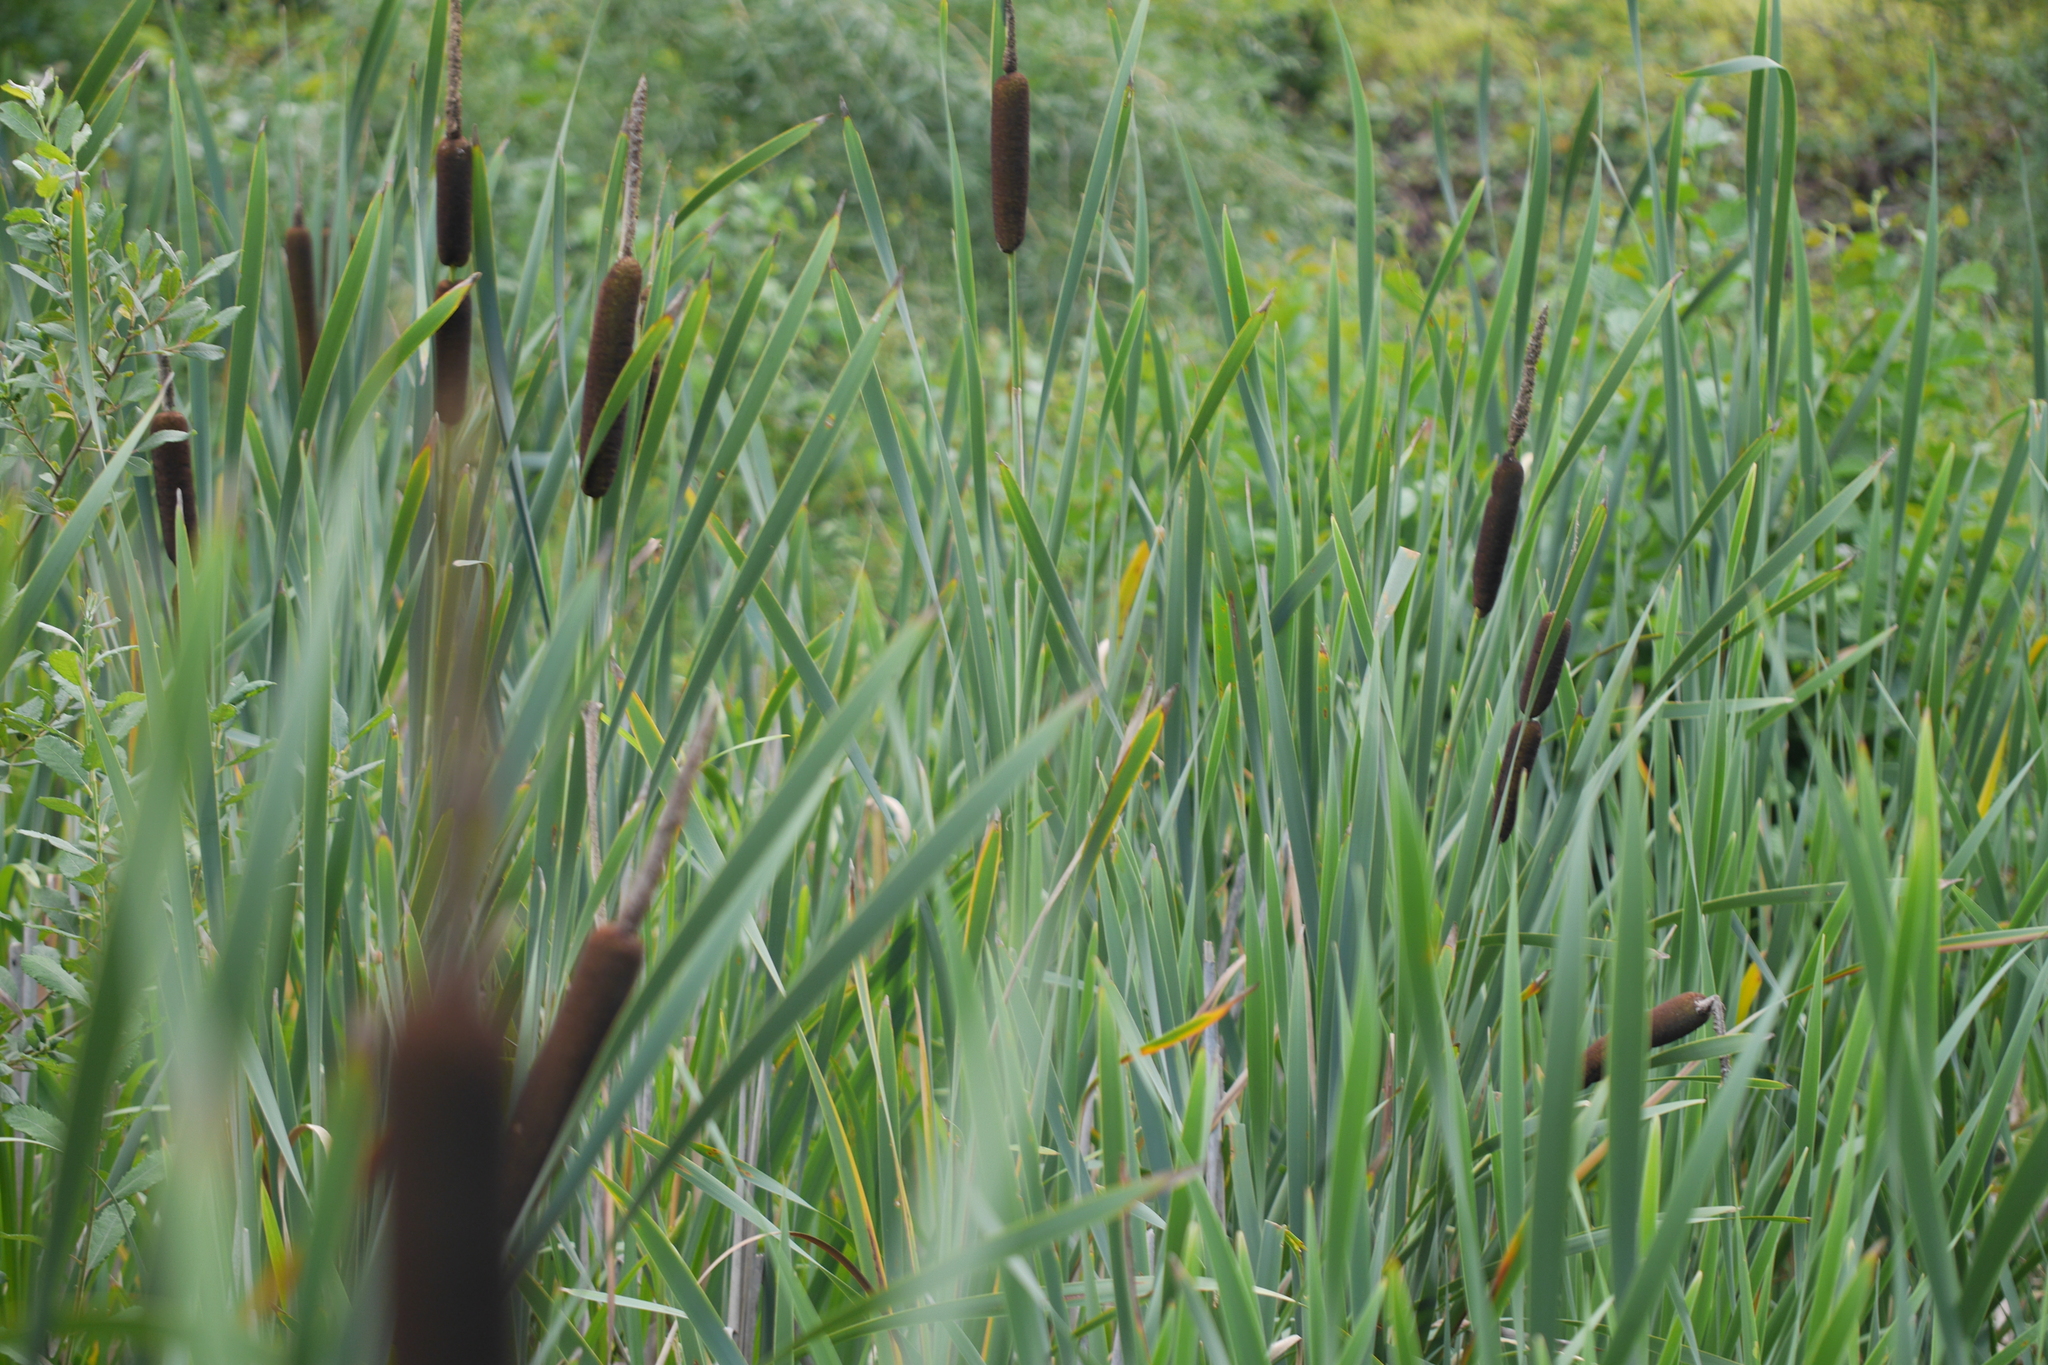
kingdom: Plantae
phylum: Tracheophyta
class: Liliopsida
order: Poales
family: Typhaceae
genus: Typha
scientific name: Typha latifolia
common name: Broadleaf cattail
